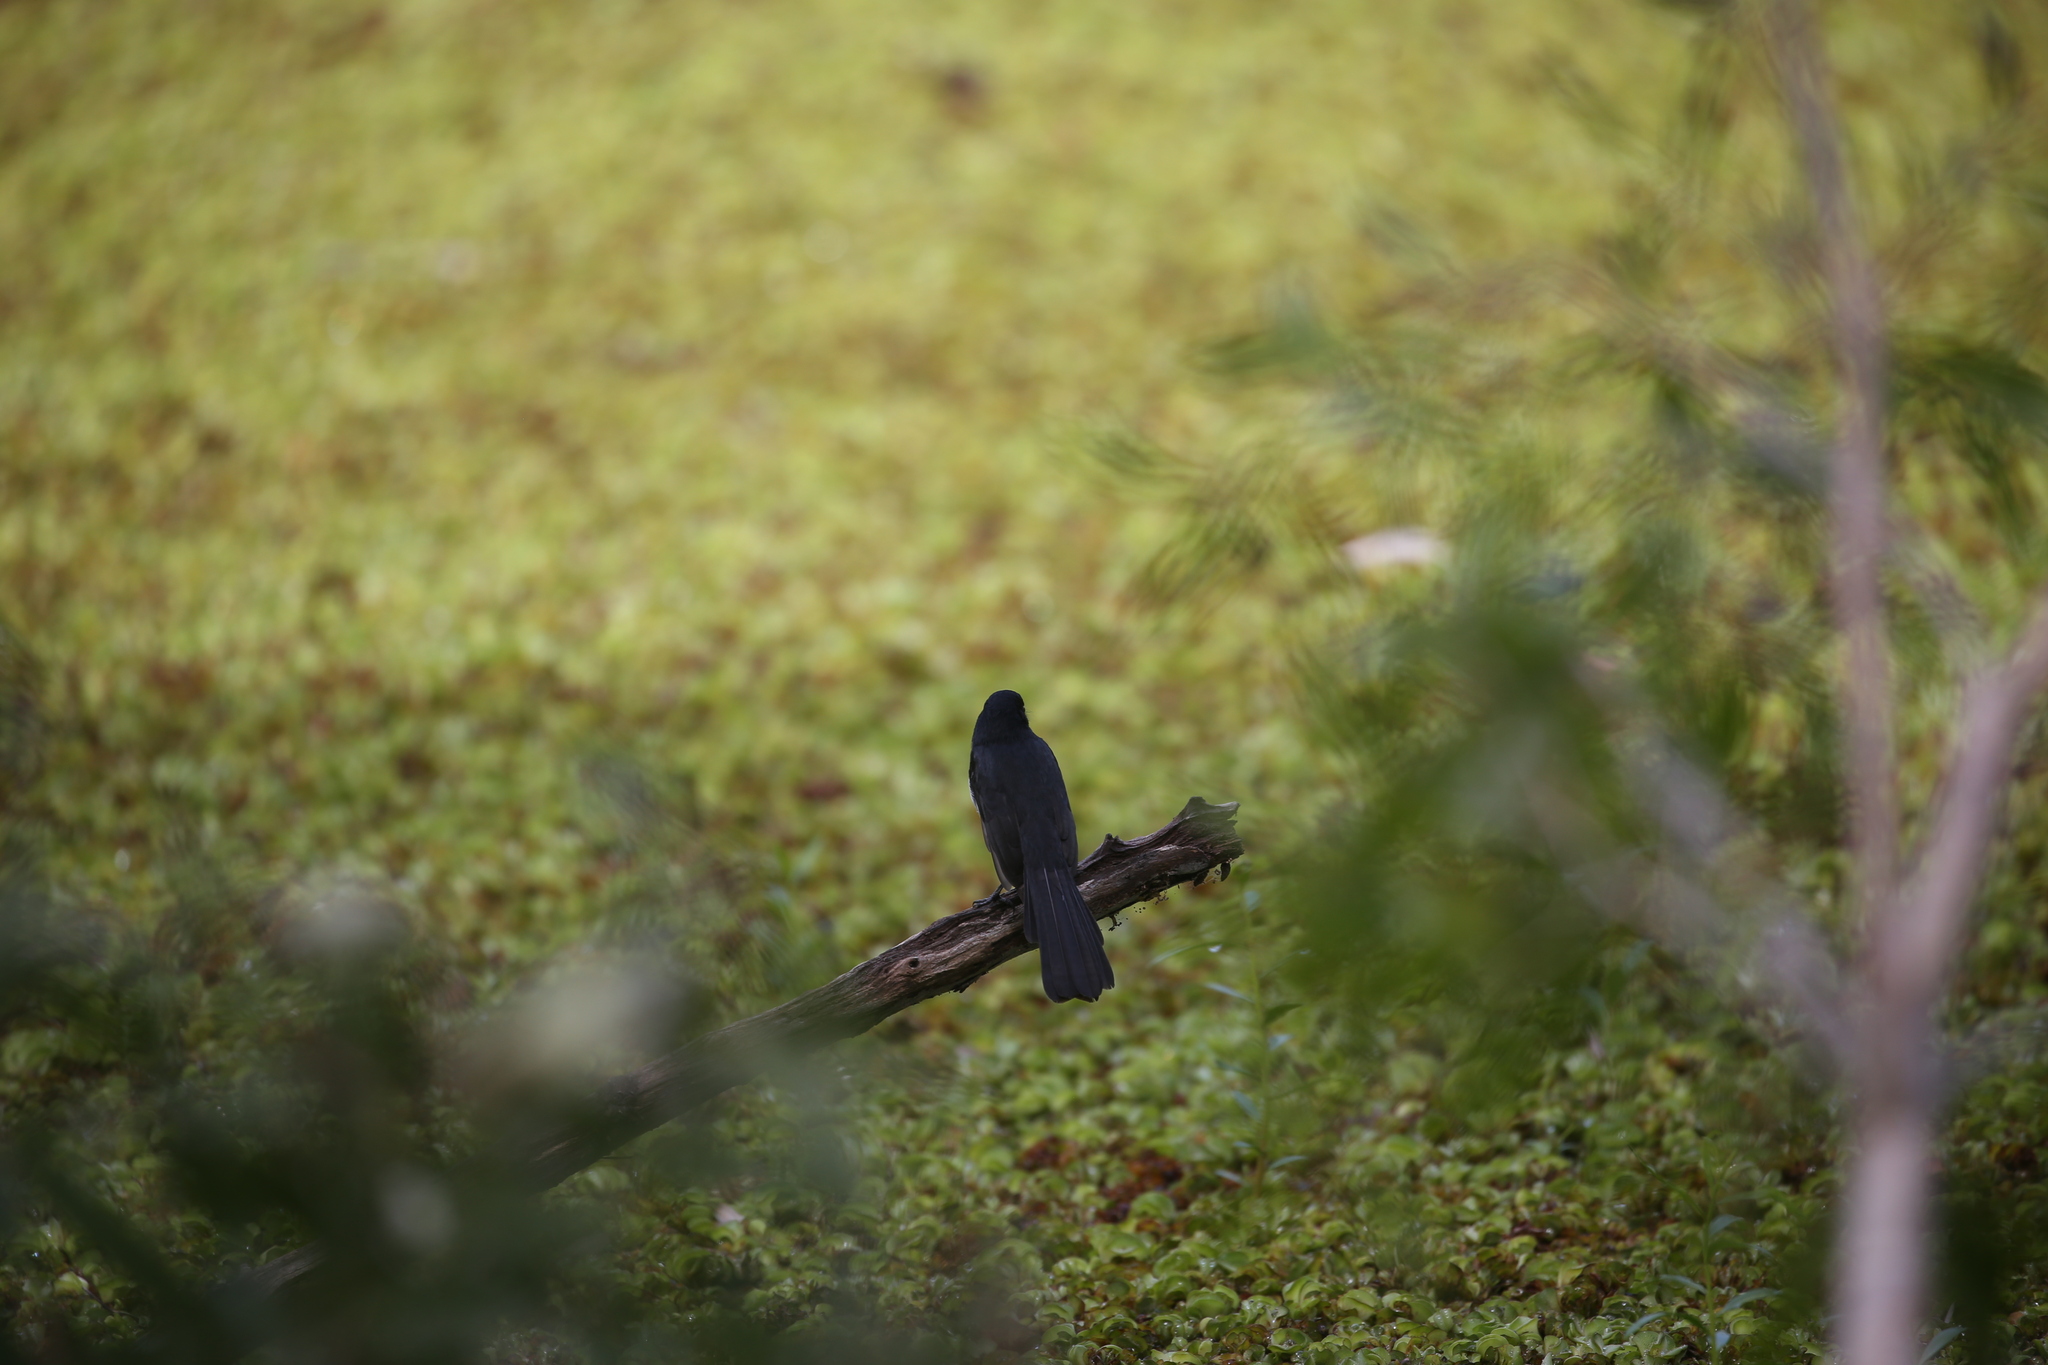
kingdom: Animalia
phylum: Chordata
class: Aves
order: Passeriformes
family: Rhipiduridae
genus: Rhipidura
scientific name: Rhipidura leucophrys
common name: Willie wagtail
